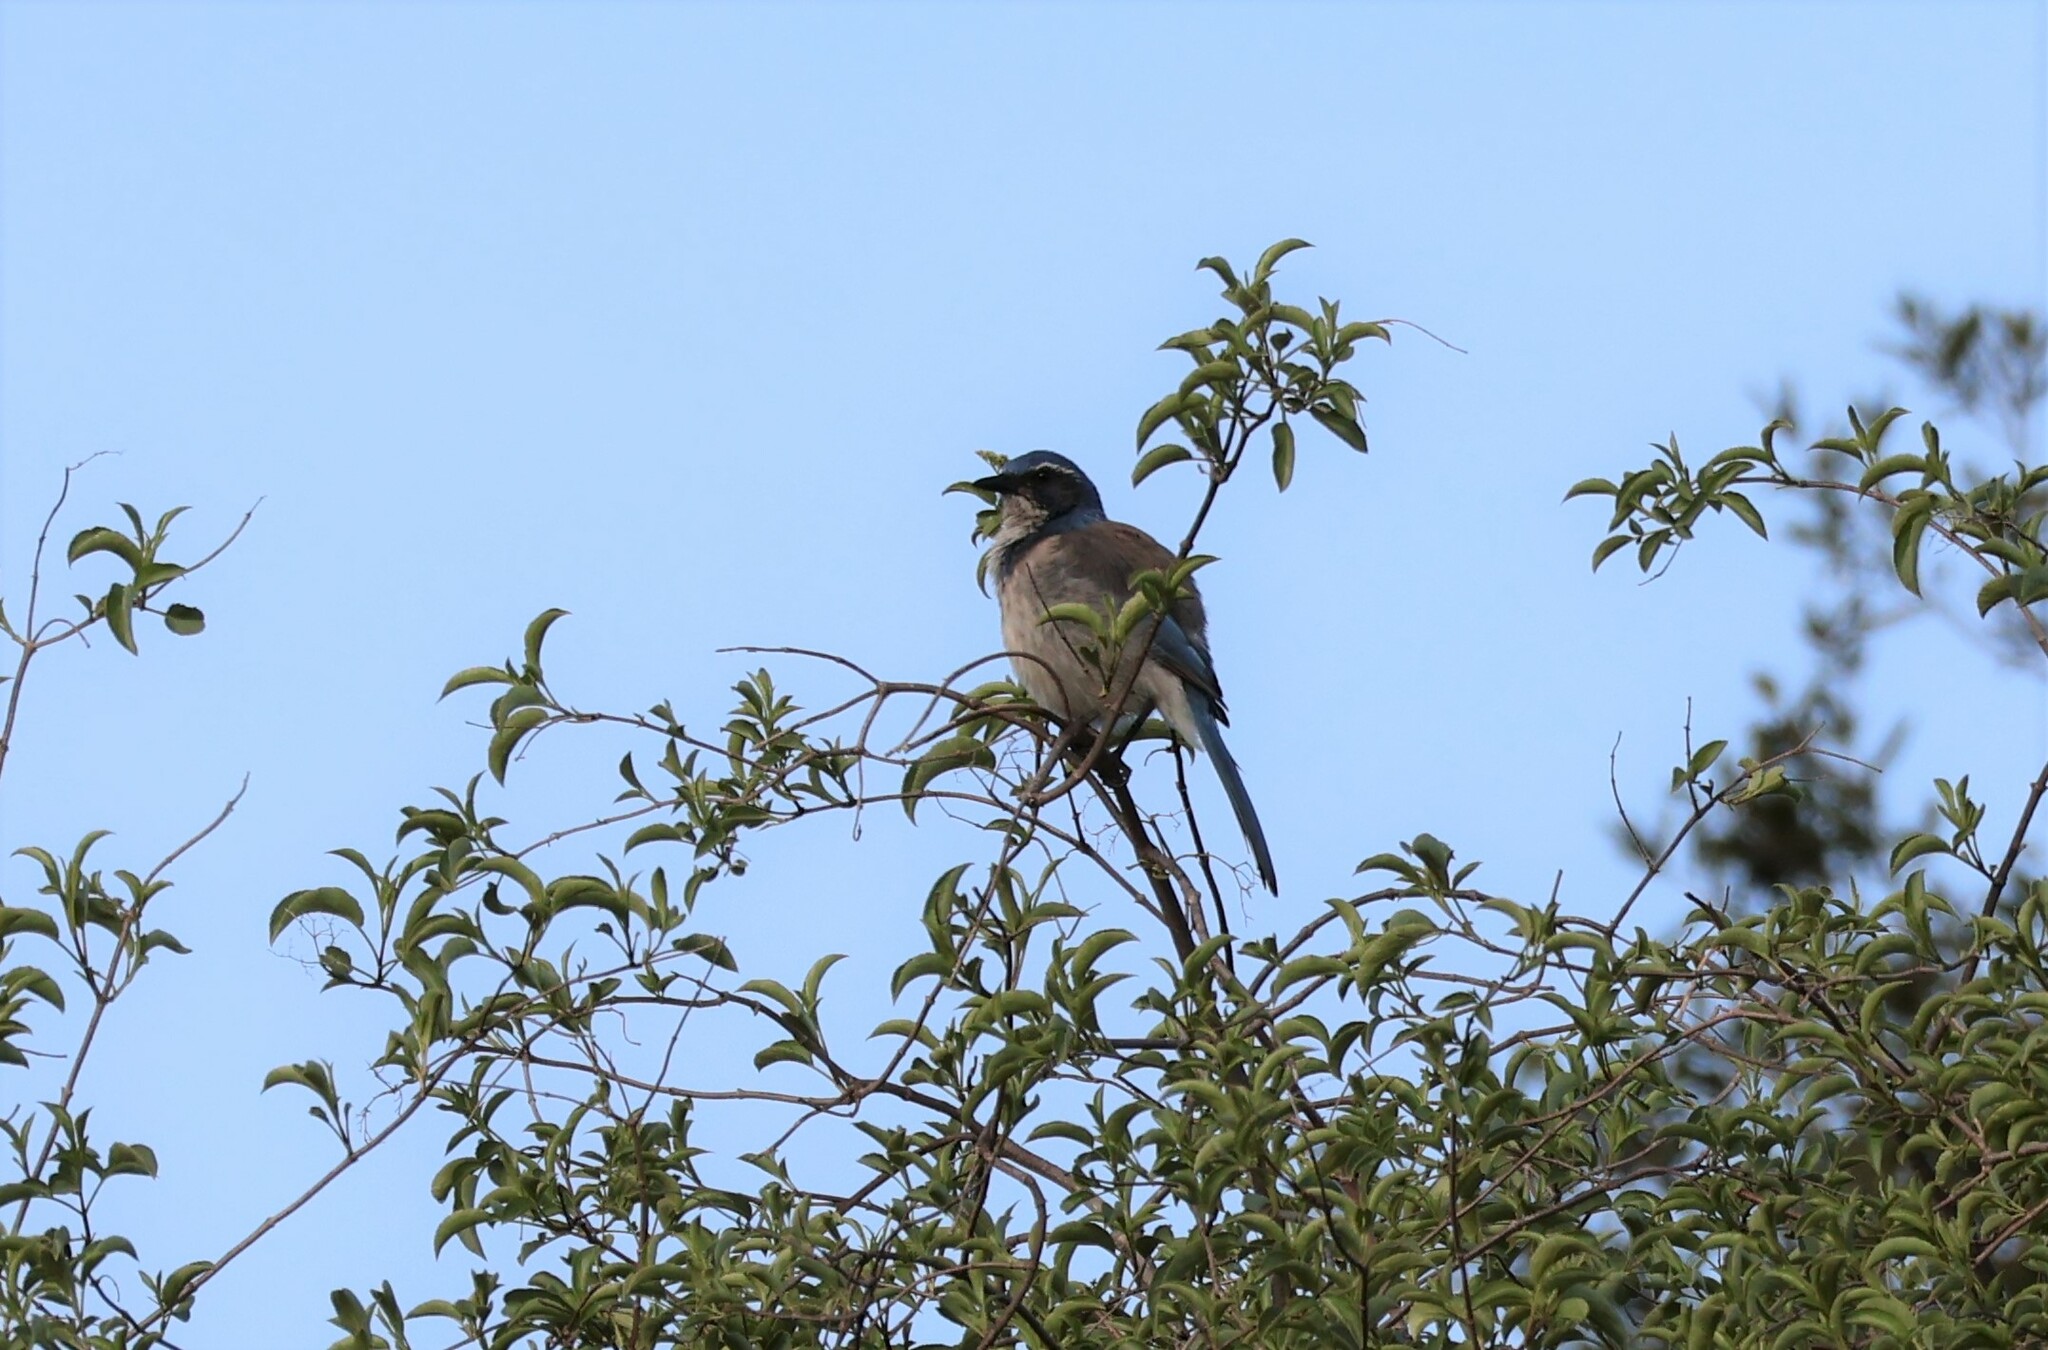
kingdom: Animalia
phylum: Chordata
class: Aves
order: Passeriformes
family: Corvidae
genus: Aphelocoma
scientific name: Aphelocoma californica
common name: California scrub-jay
